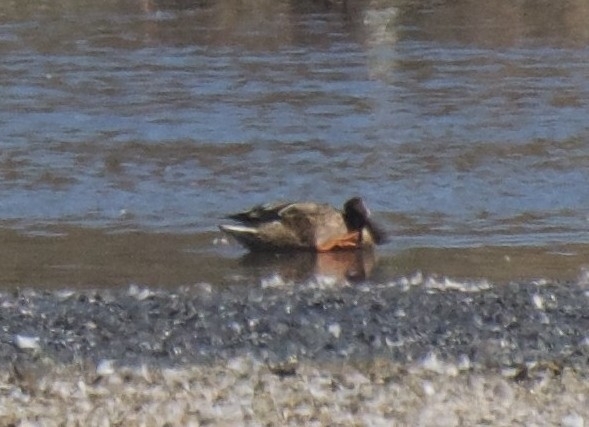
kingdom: Animalia
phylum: Chordata
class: Aves
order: Anseriformes
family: Anatidae
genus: Spatula
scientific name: Spatula clypeata
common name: Northern shoveler
